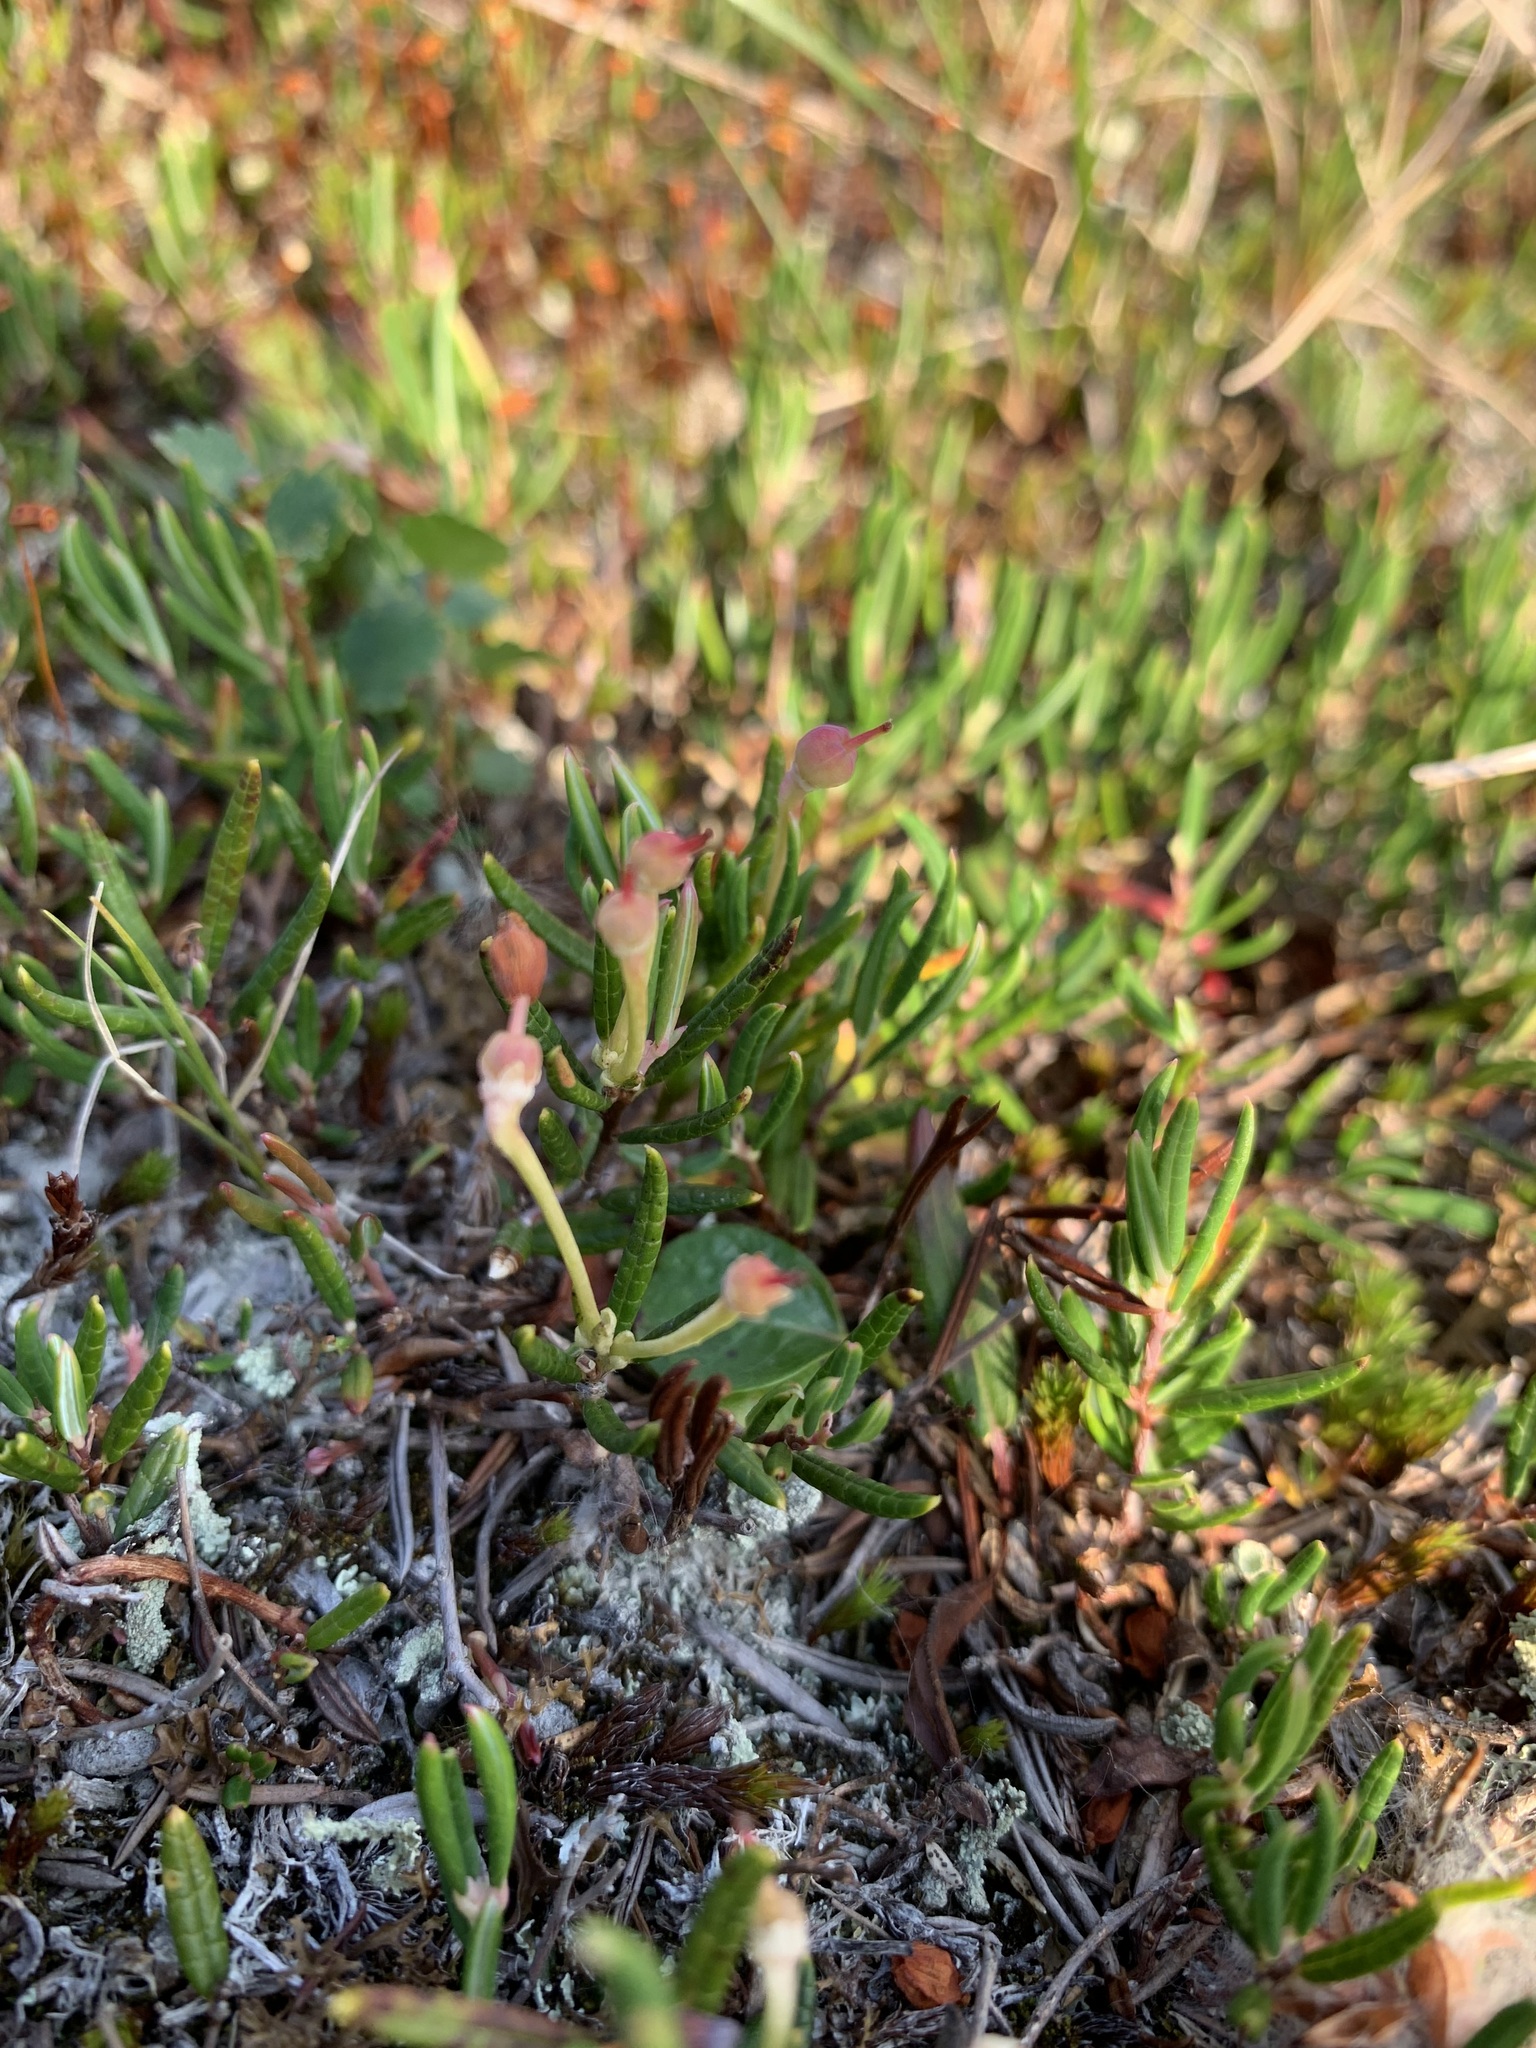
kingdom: Plantae
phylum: Tracheophyta
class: Magnoliopsida
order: Ericales
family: Ericaceae
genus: Andromeda
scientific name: Andromeda polifolia
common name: Bog-rosemary
